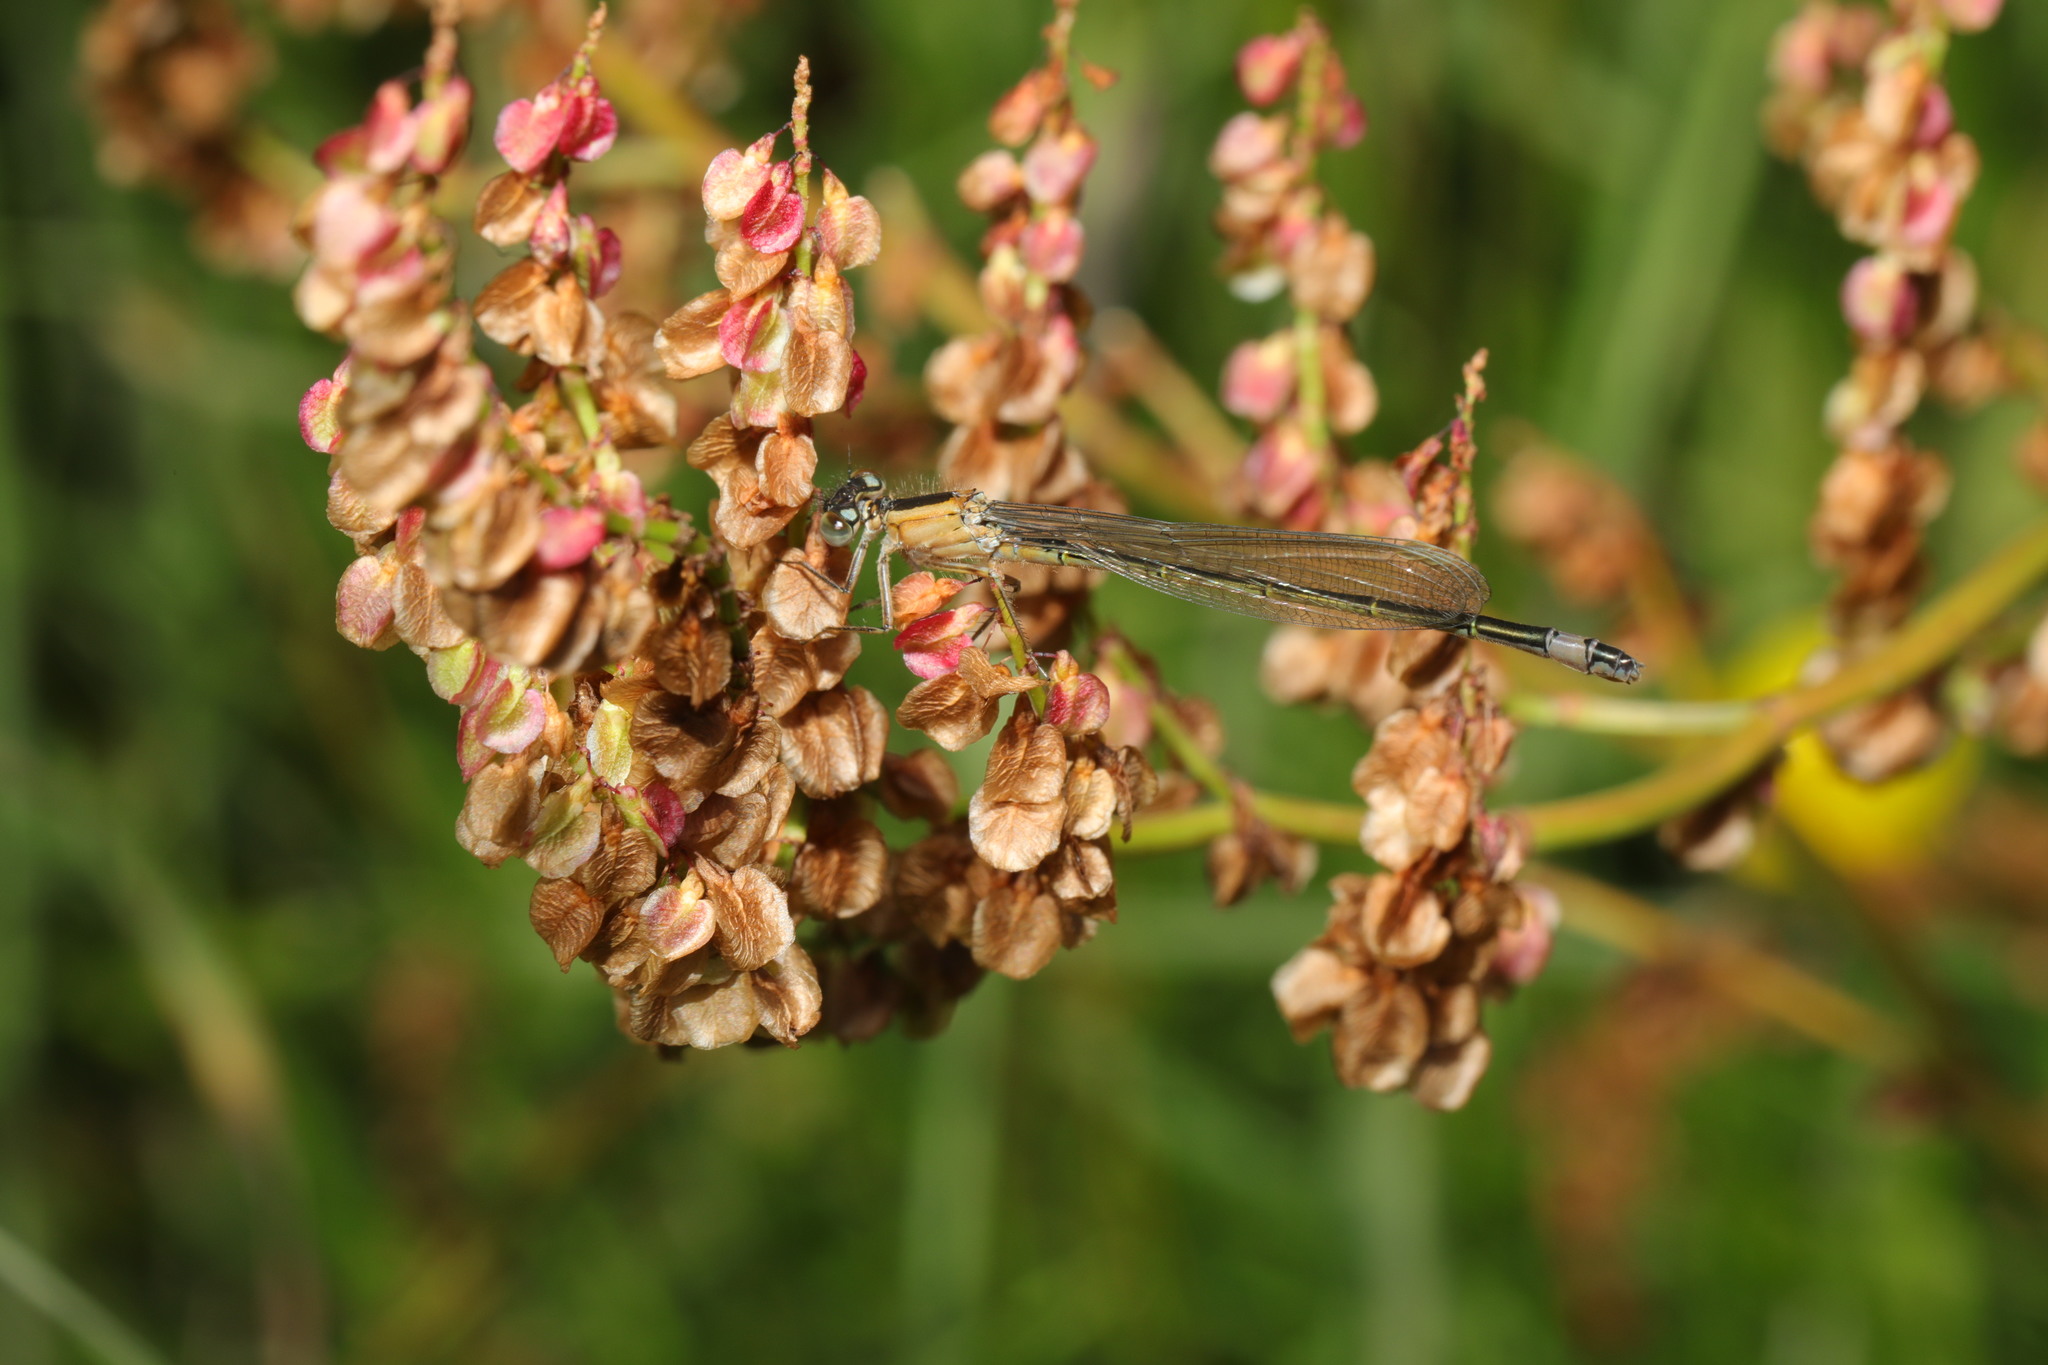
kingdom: Animalia
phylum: Arthropoda
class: Insecta
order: Odonata
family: Coenagrionidae
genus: Ischnura
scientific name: Ischnura elegans
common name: Blue-tailed damselfly
